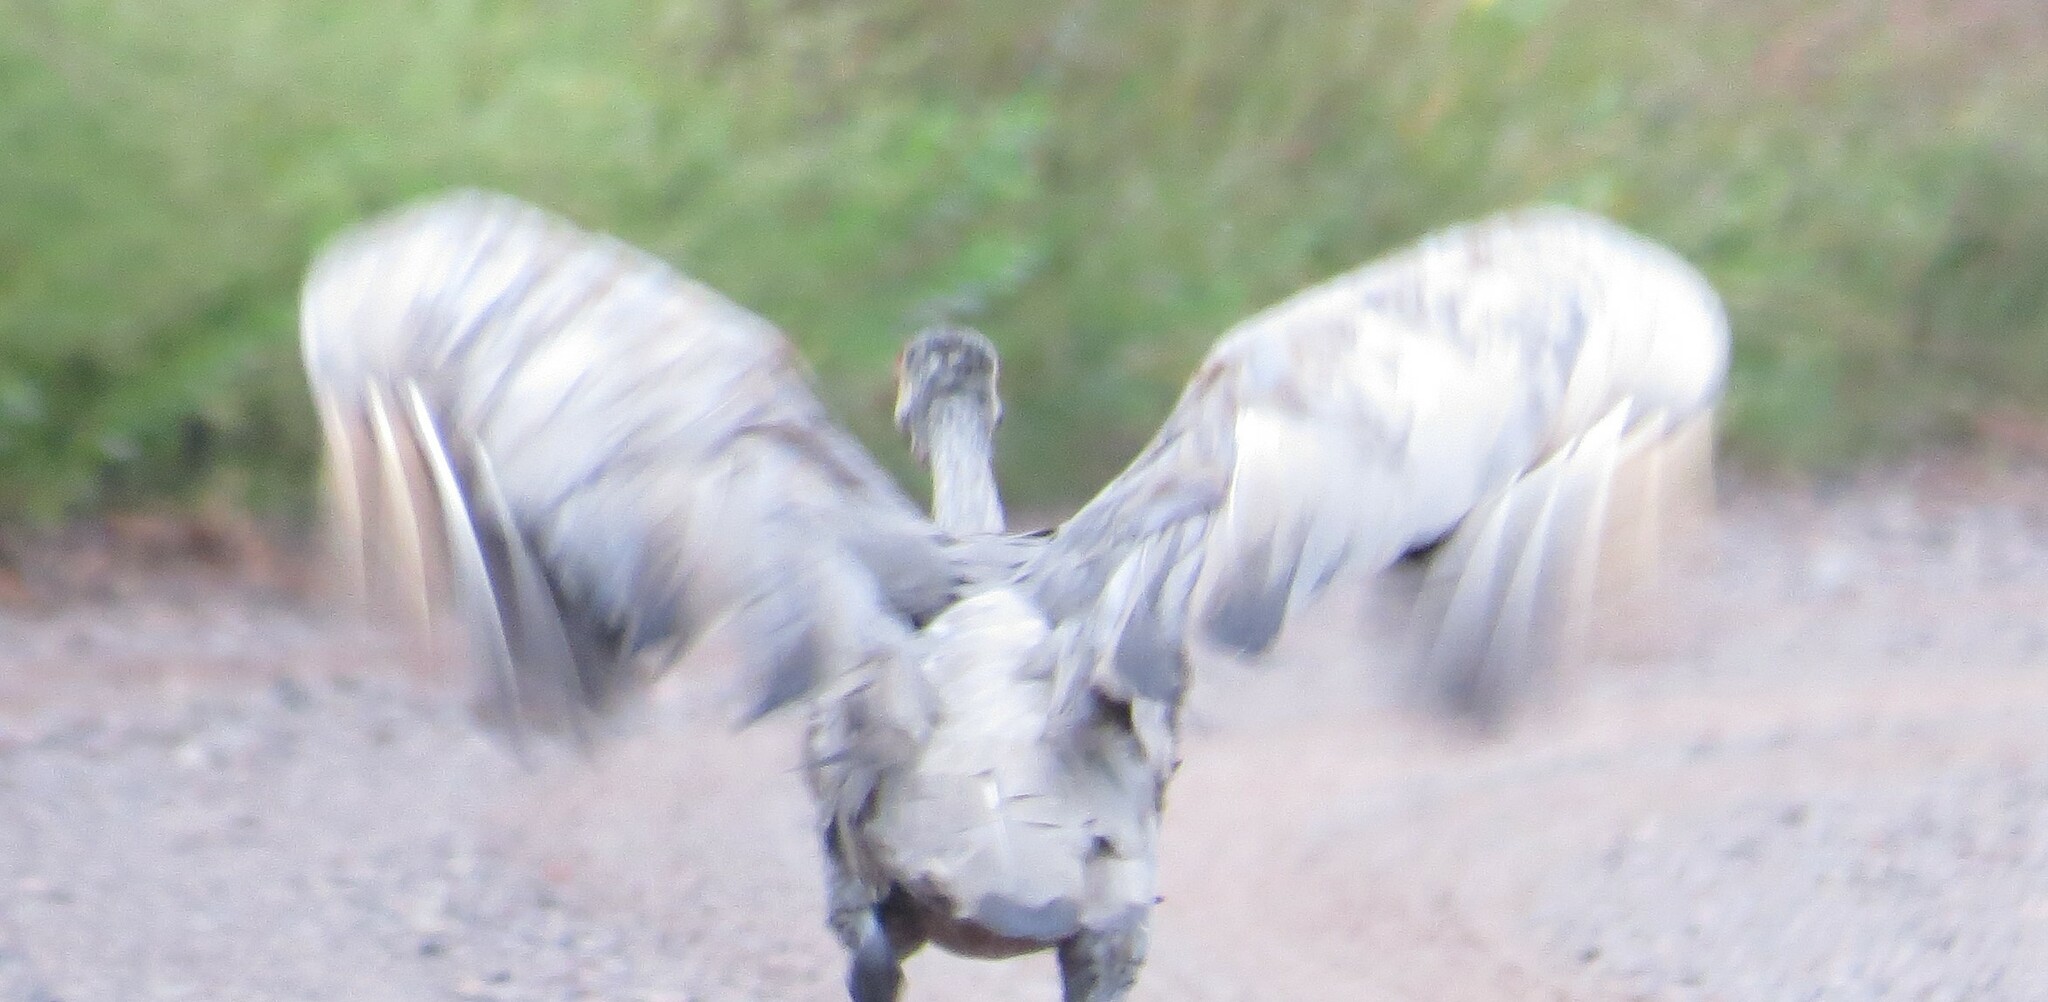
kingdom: Animalia
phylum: Chordata
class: Aves
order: Gruiformes
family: Gruidae
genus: Grus
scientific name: Grus canadensis
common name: Sandhill crane
